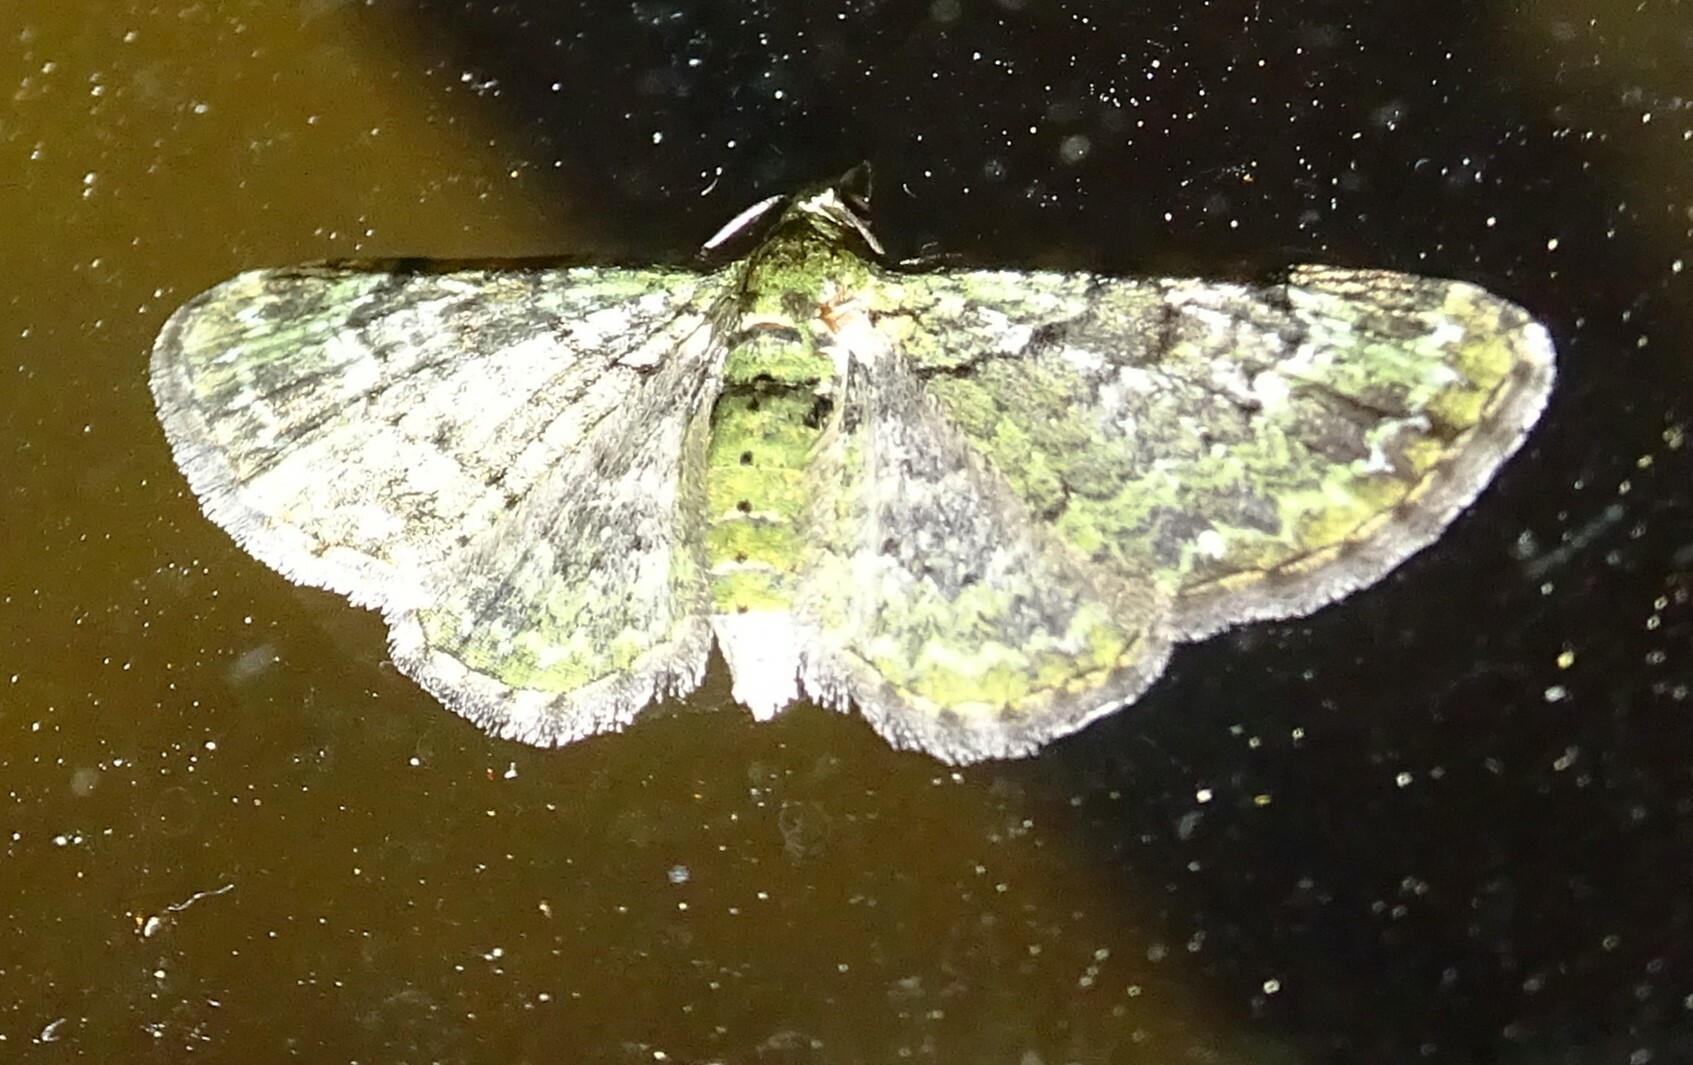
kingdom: Animalia
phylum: Arthropoda
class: Insecta
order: Lepidoptera
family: Geometridae
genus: Pasiphila
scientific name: Pasiphila rectangulata
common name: Green pug
